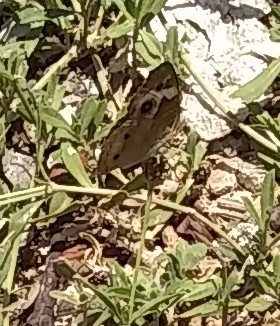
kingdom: Animalia
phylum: Arthropoda
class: Insecta
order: Lepidoptera
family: Nymphalidae
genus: Junonia
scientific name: Junonia coenia
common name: Common buckeye
